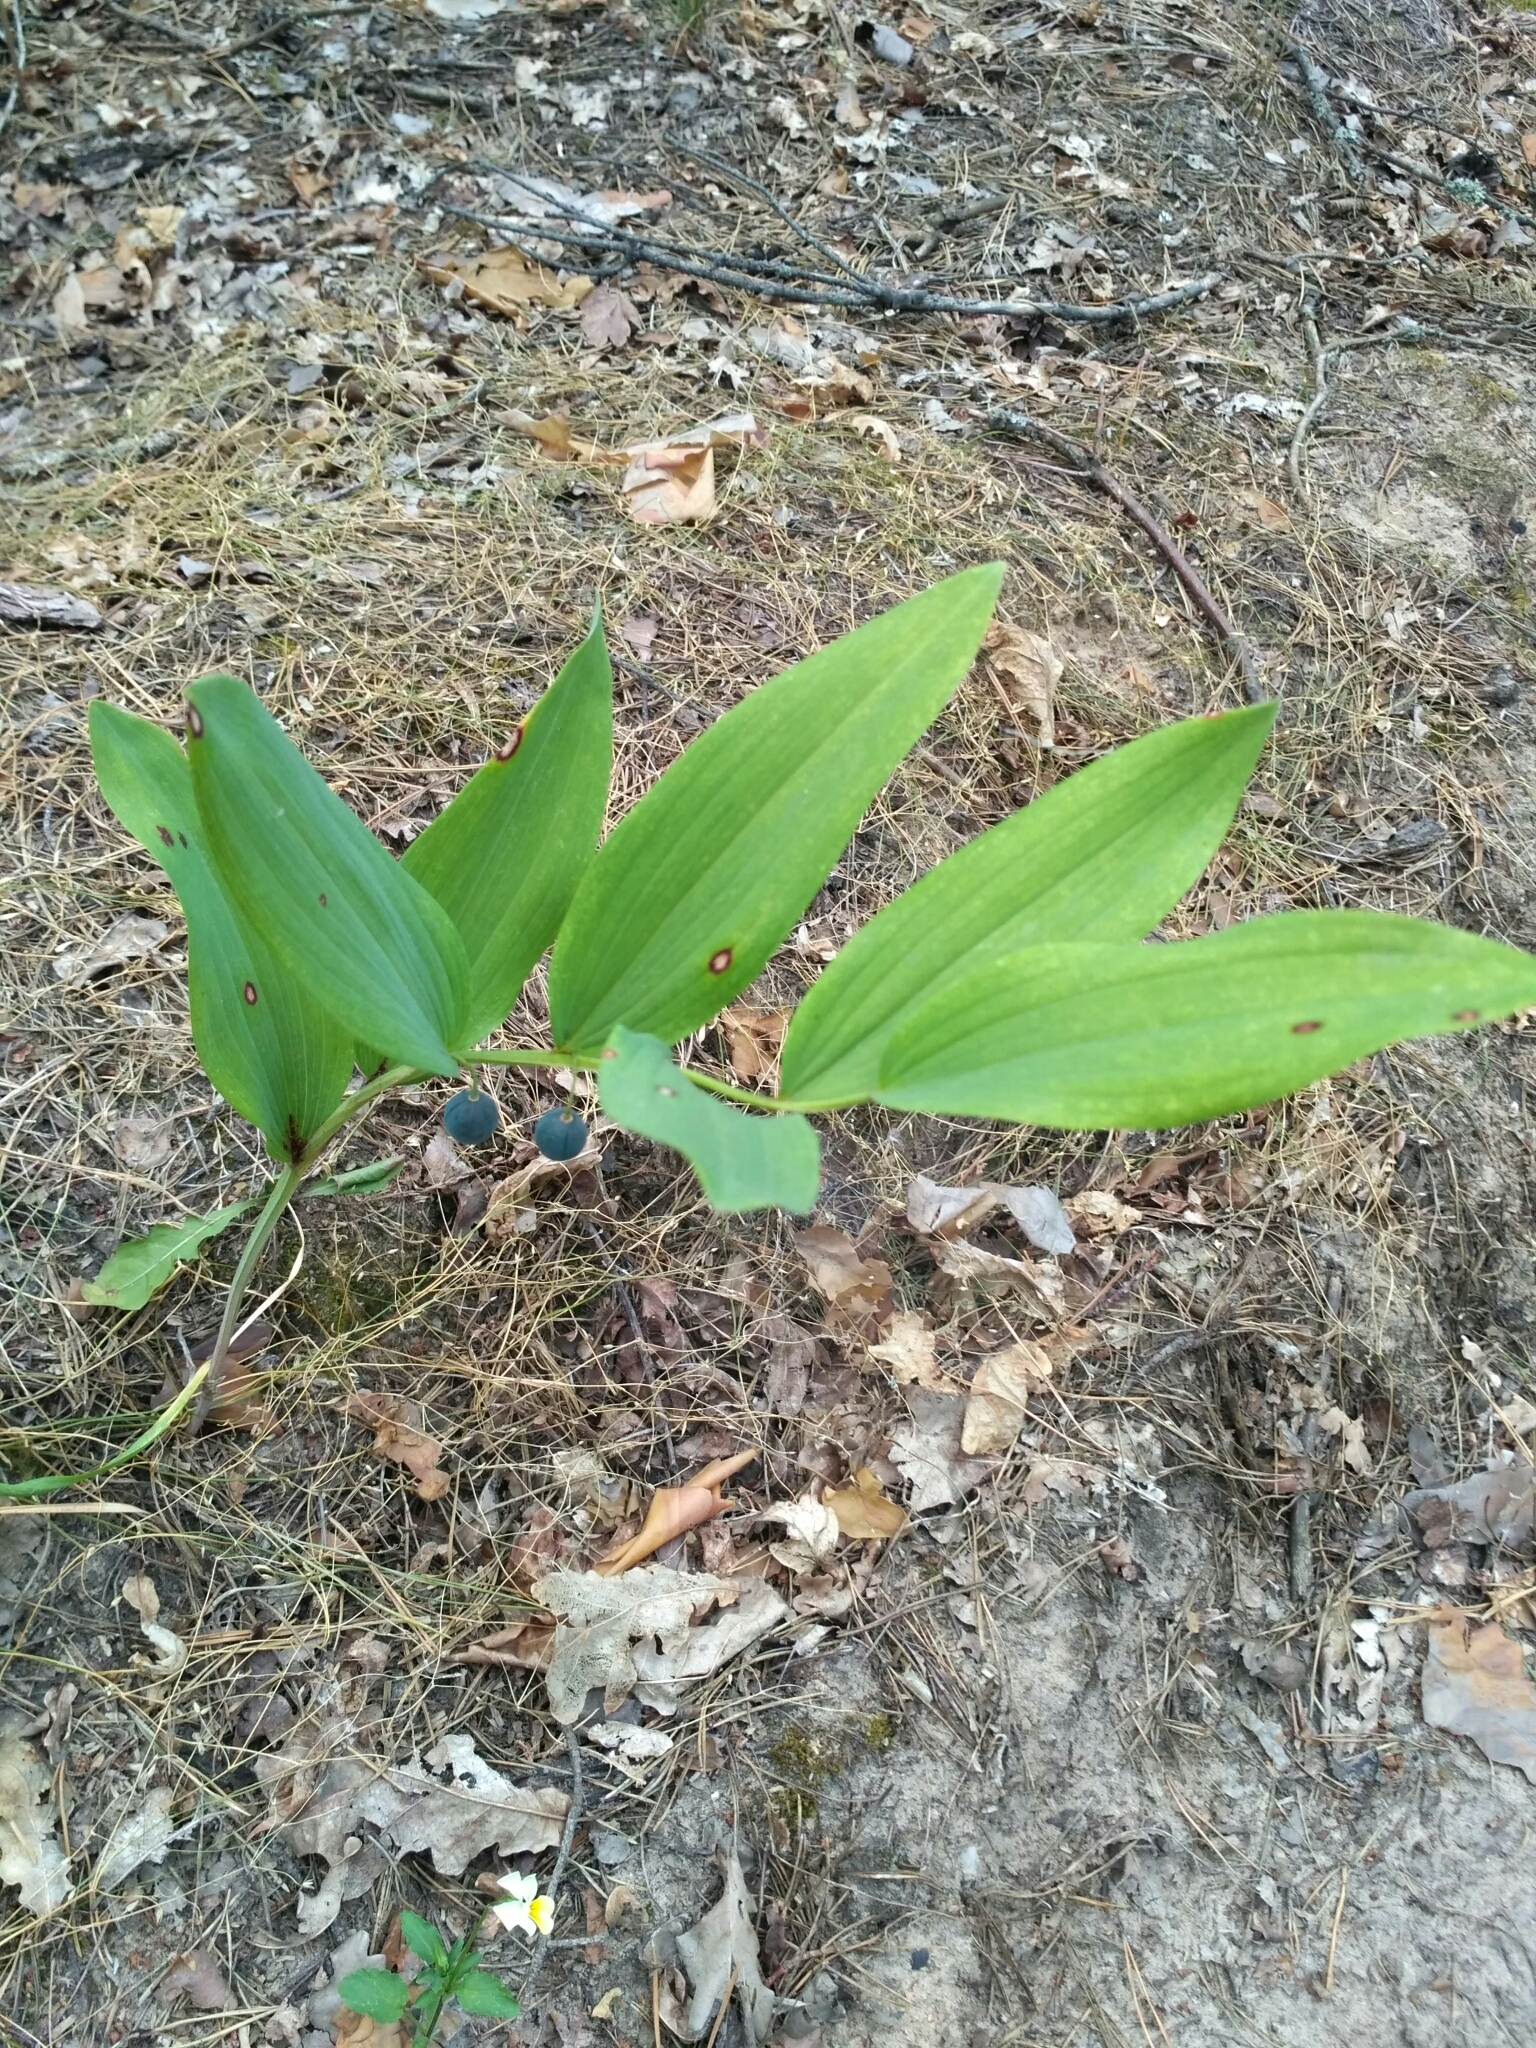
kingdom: Plantae
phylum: Tracheophyta
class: Liliopsida
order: Asparagales
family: Asparagaceae
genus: Polygonatum
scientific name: Polygonatum odoratum
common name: Angular solomon's-seal
